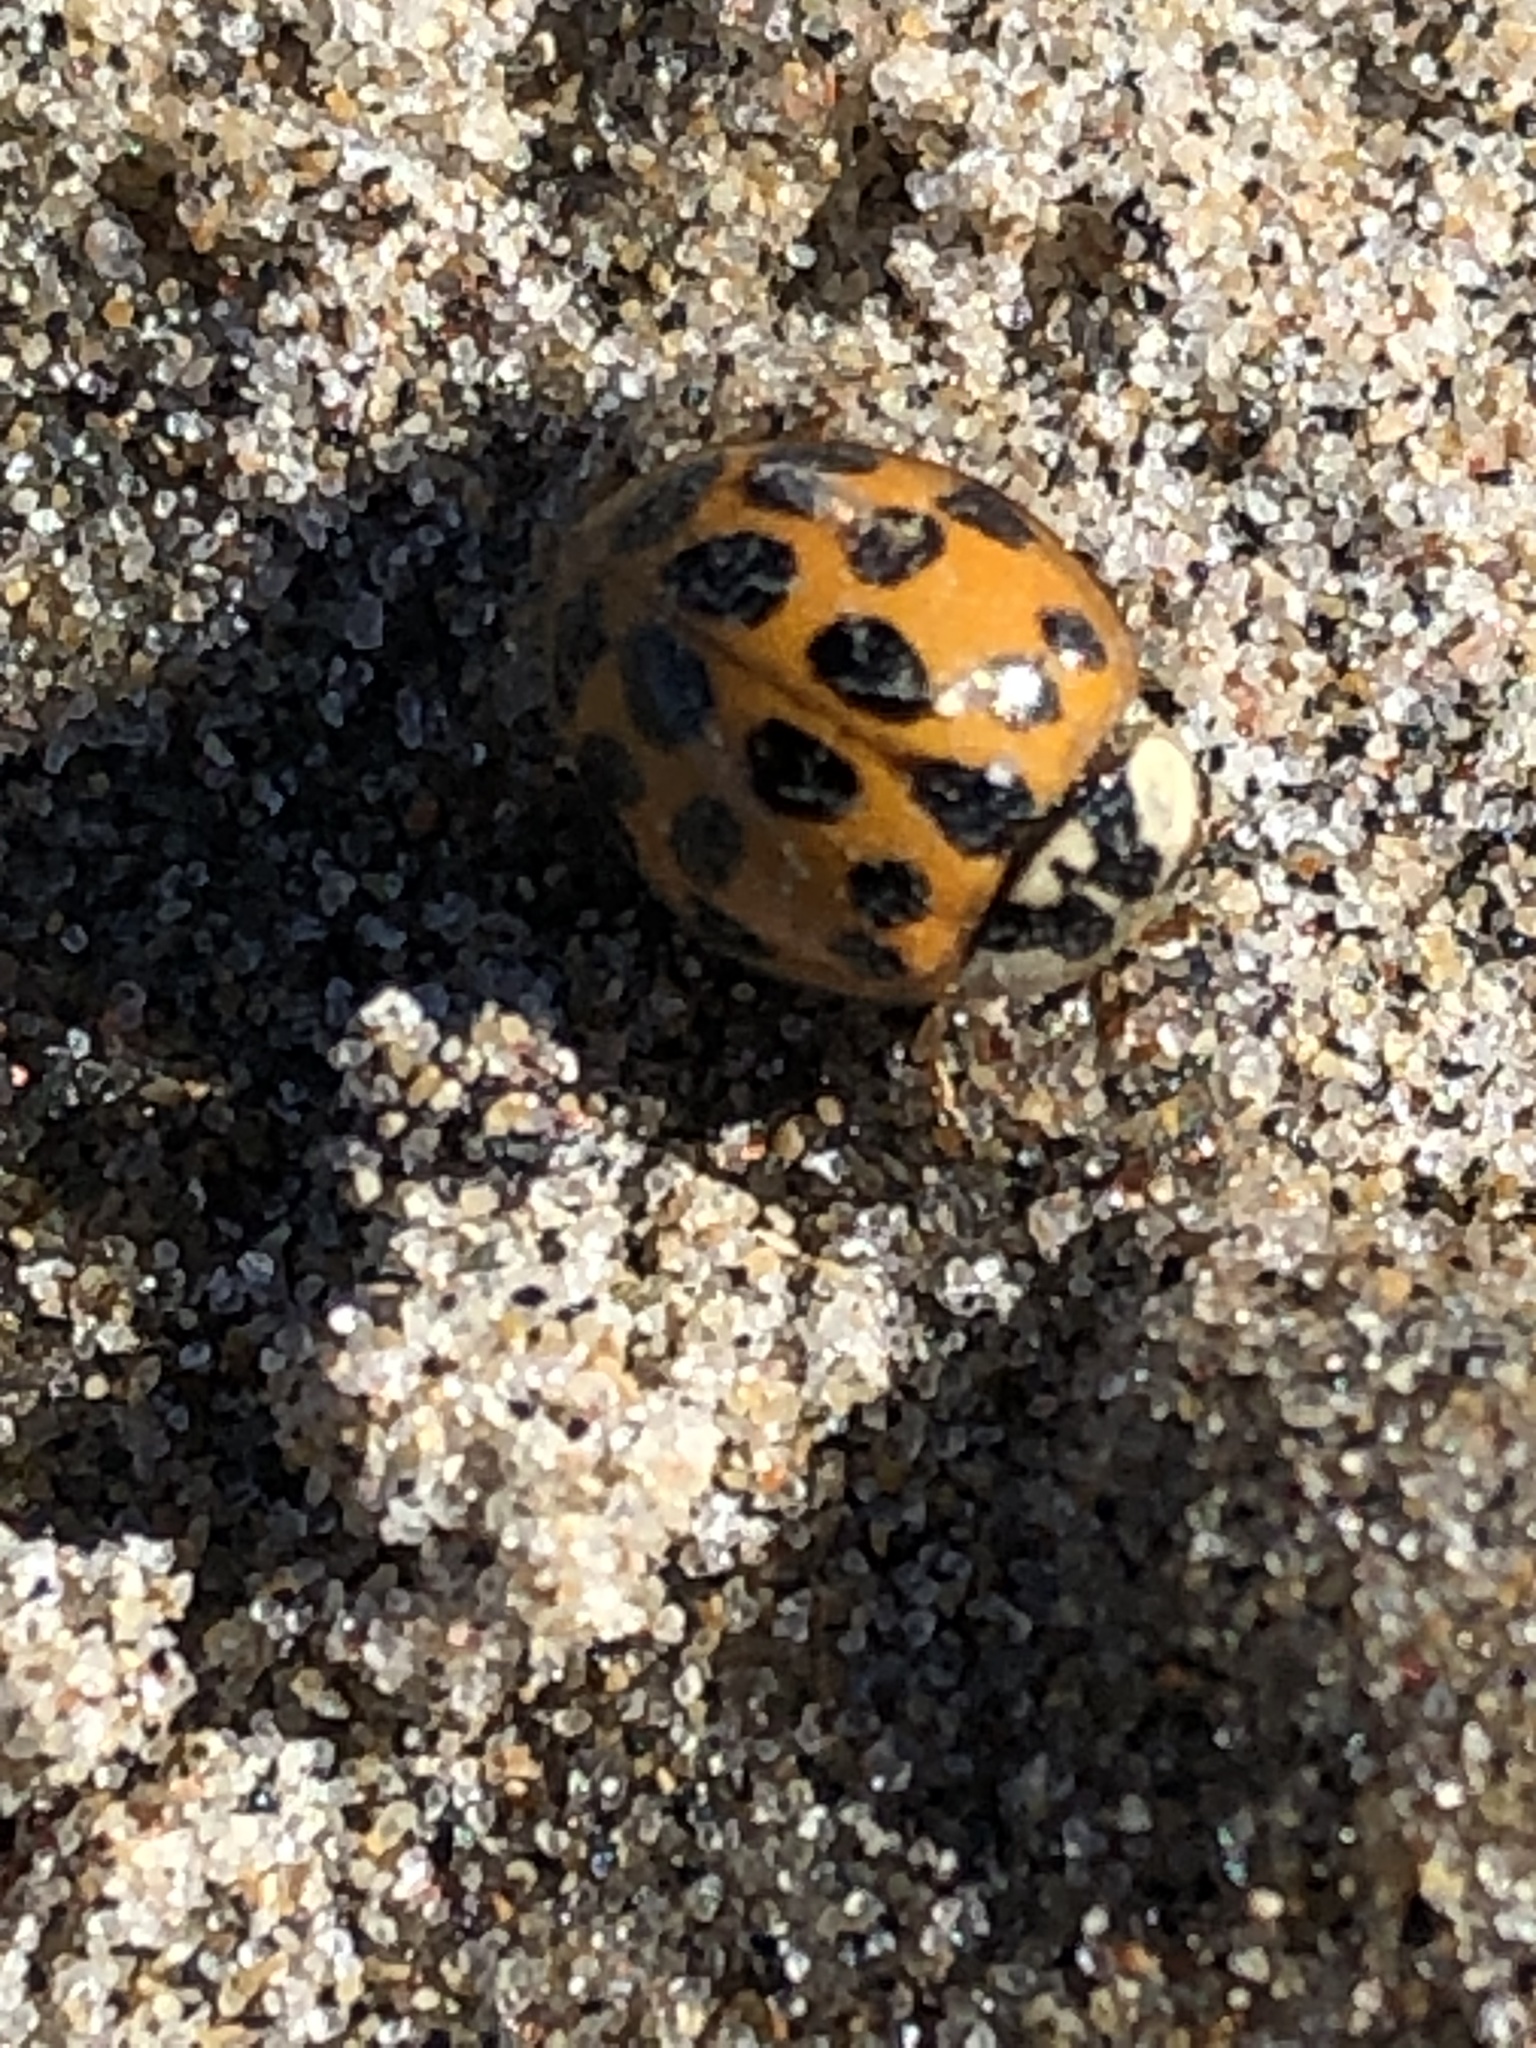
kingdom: Animalia
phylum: Arthropoda
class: Insecta
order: Coleoptera
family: Coccinellidae
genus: Harmonia
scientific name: Harmonia axyridis
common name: Harlequin ladybird
